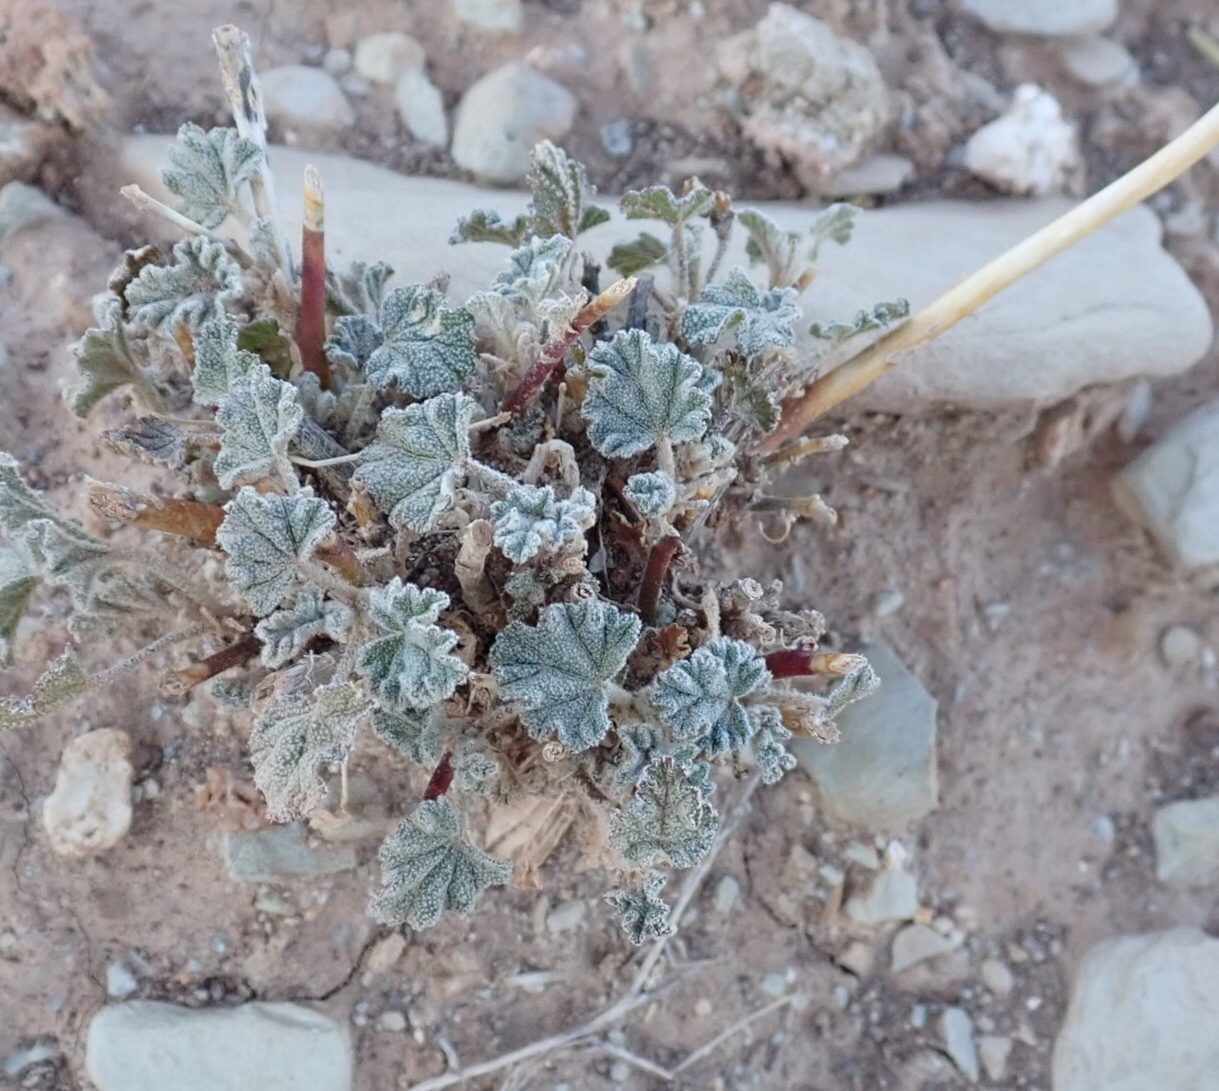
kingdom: Plantae
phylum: Tracheophyta
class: Magnoliopsida
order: Malvales
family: Malvaceae
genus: Sphaeralcea
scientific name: Sphaeralcea ambigua
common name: Apricot globe-mallow
